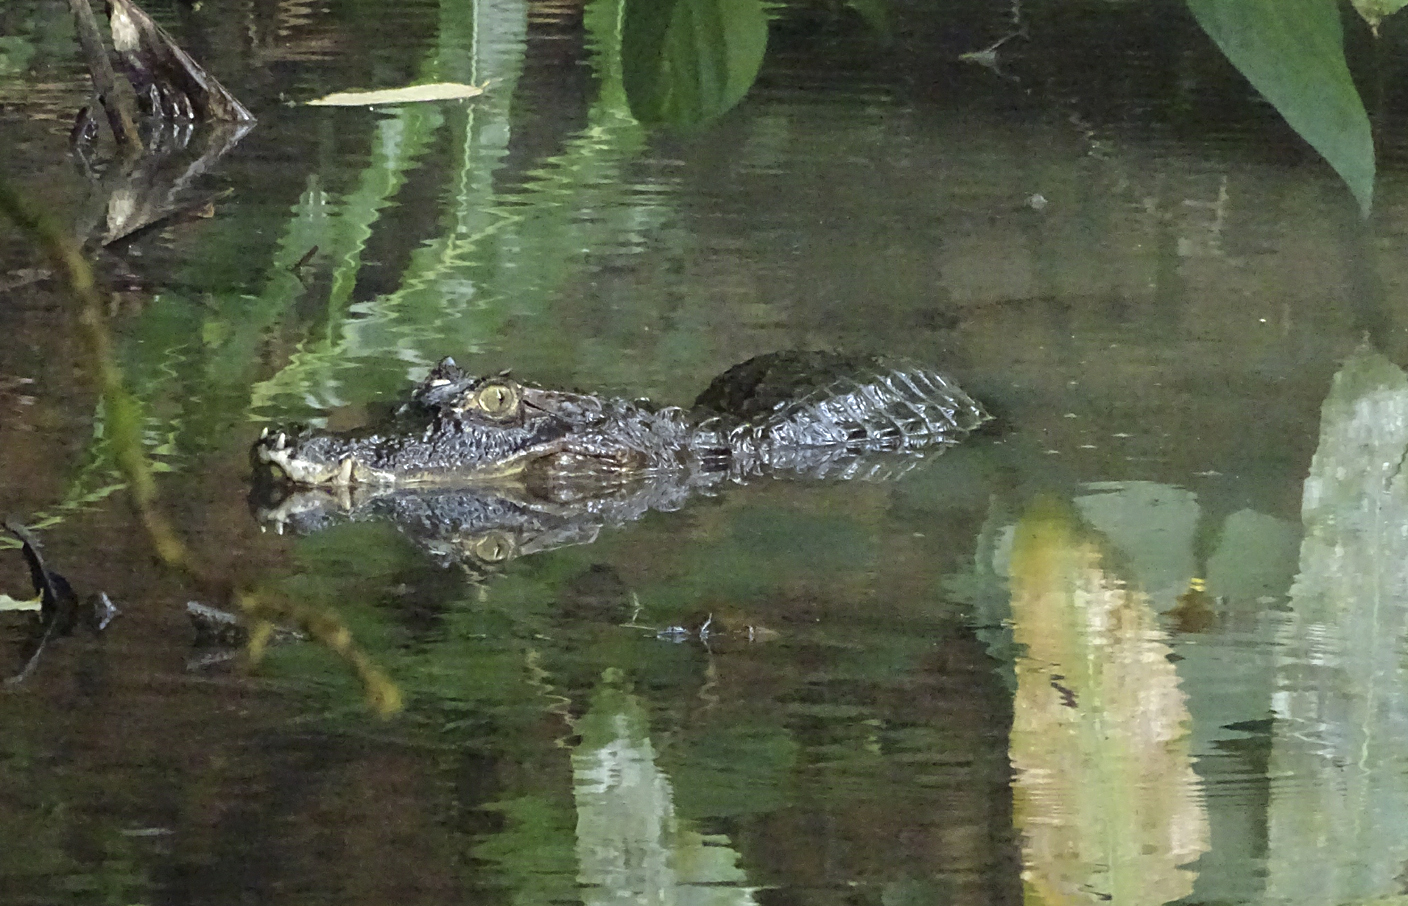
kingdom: Animalia
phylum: Chordata
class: Crocodylia
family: Alligatoridae
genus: Caiman
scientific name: Caiman crocodilus
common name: Common caiman
